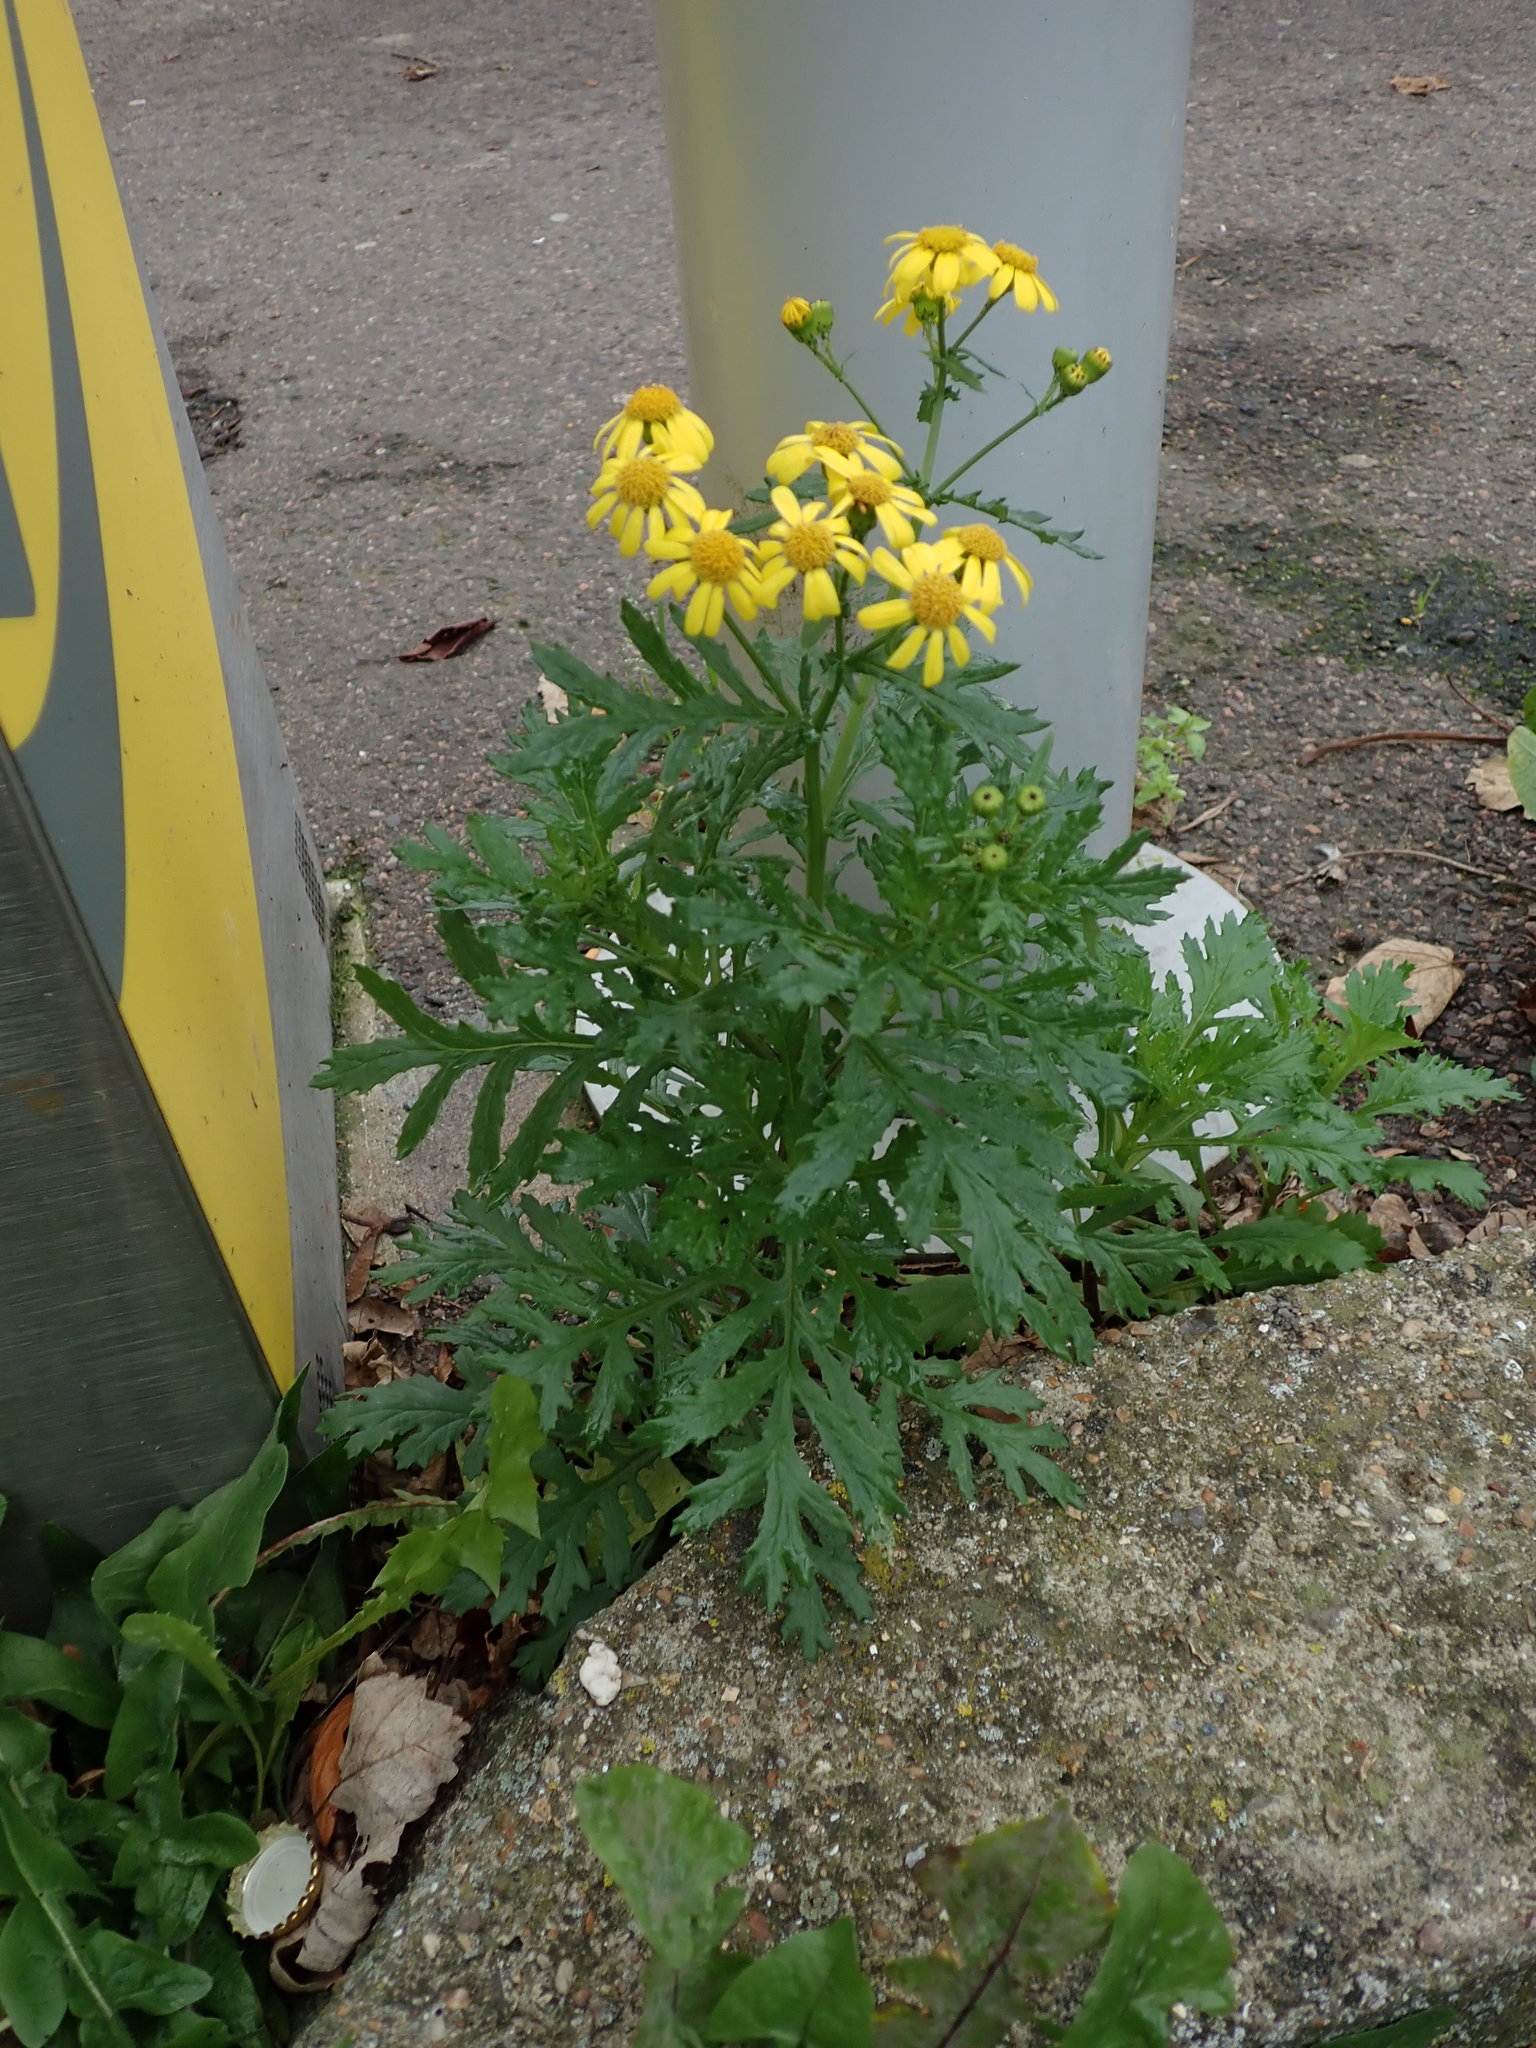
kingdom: Plantae
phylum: Tracheophyta
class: Magnoliopsida
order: Asterales
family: Asteraceae
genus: Senecio
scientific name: Senecio squalidus
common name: Oxford ragwort
